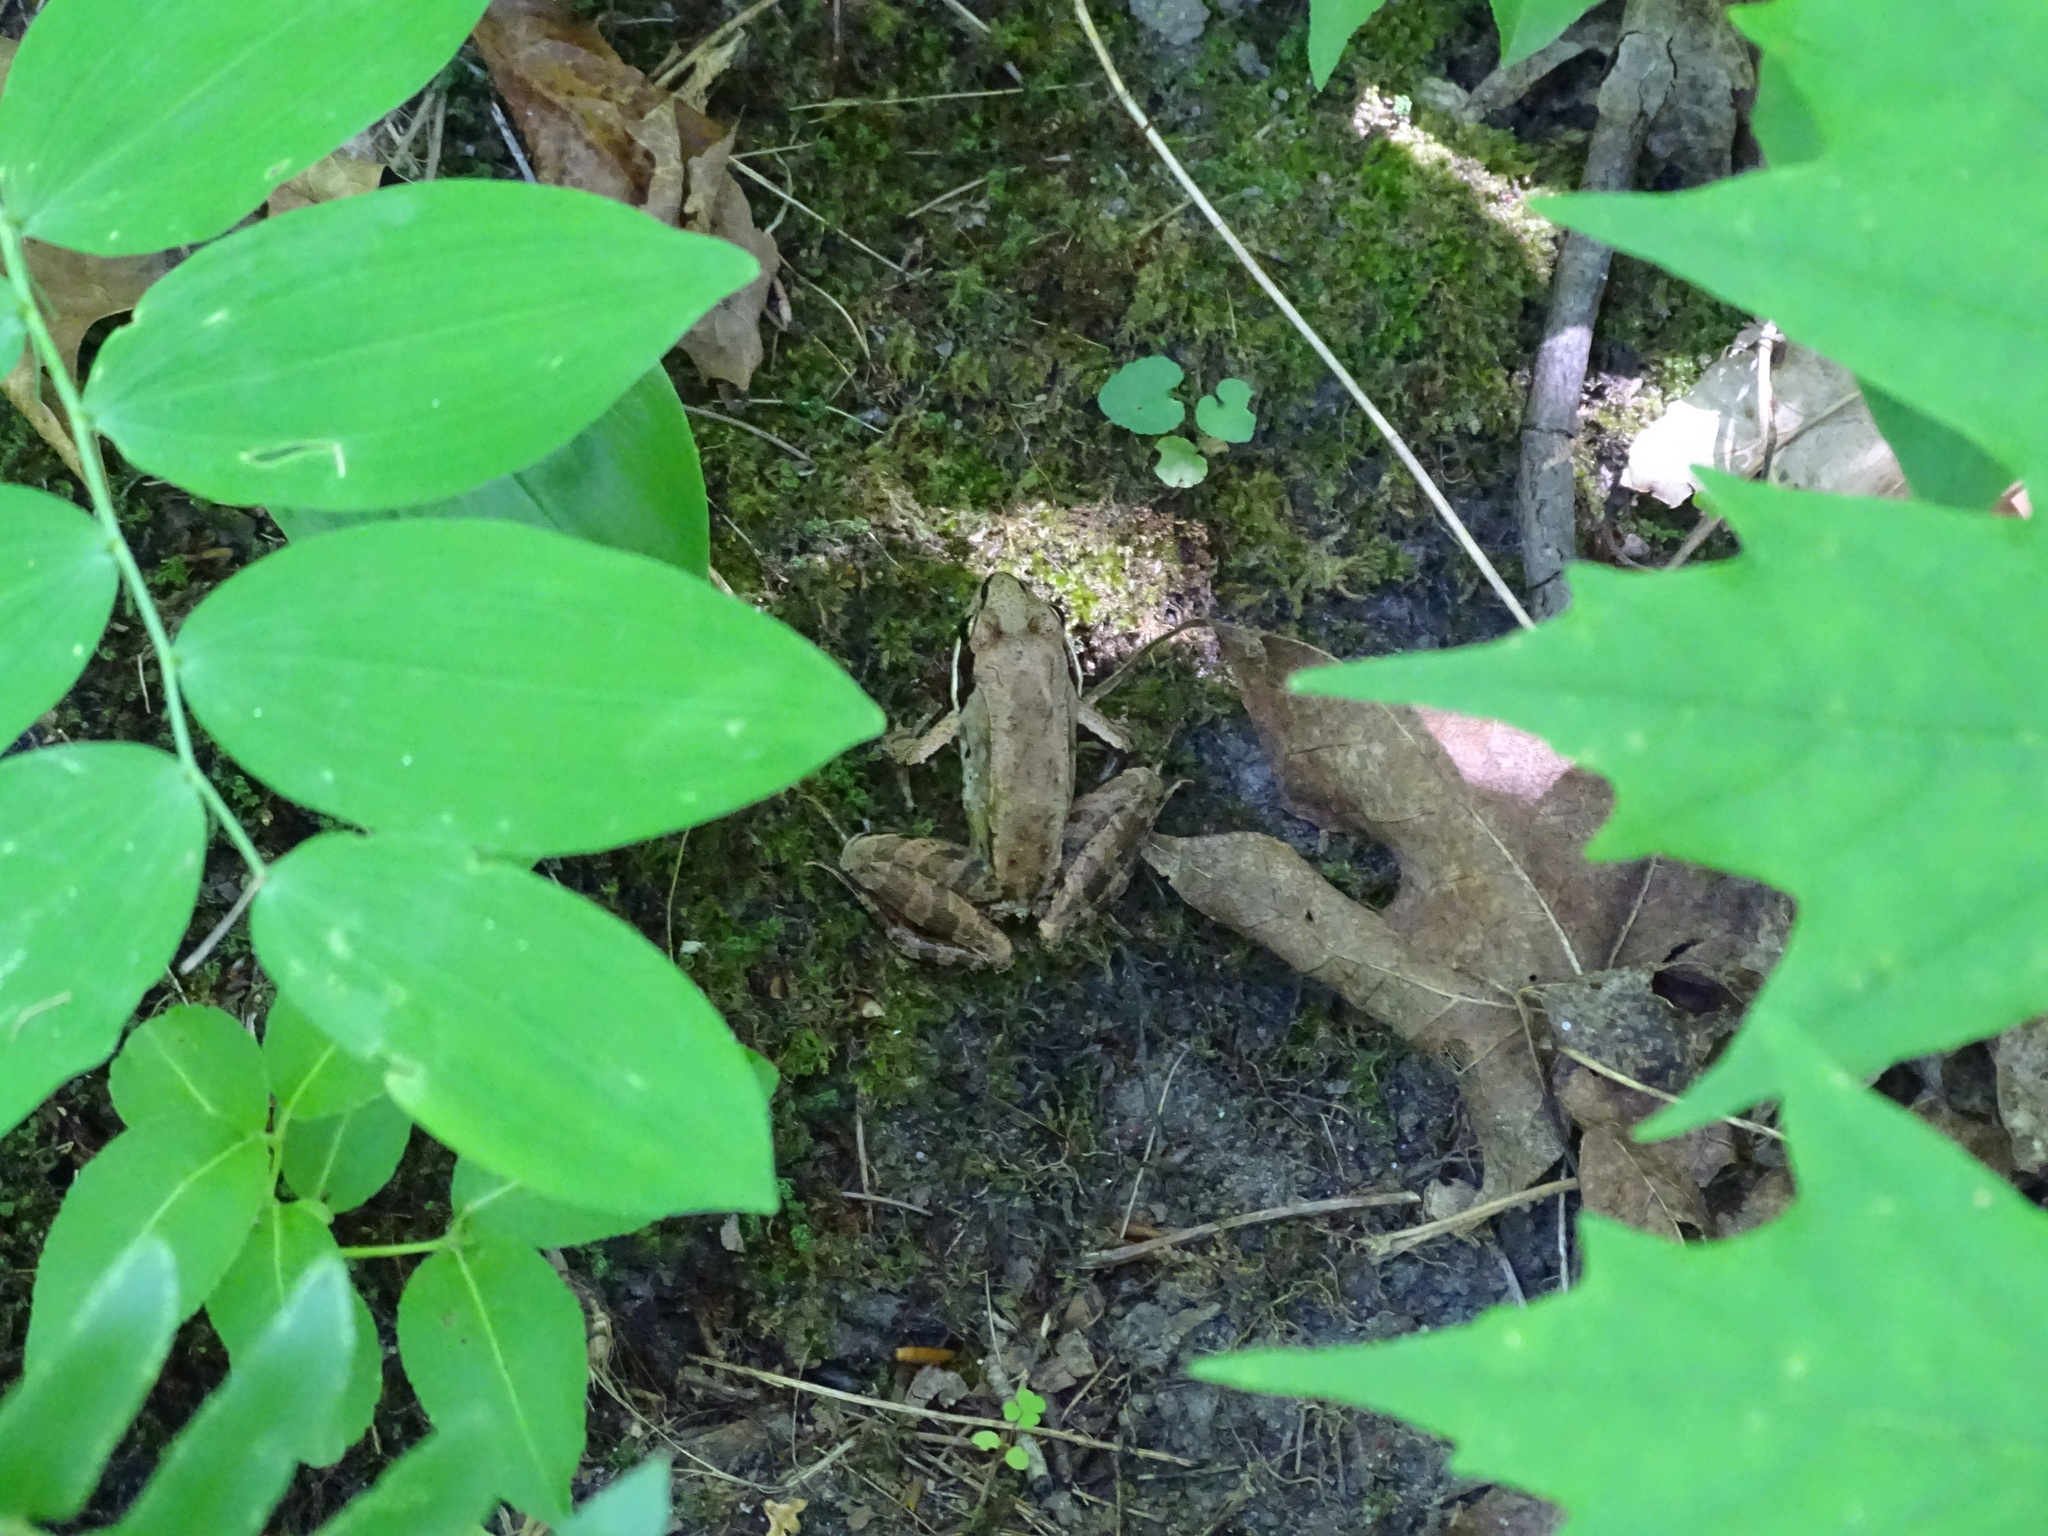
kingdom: Animalia
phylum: Chordata
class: Amphibia
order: Anura
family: Ranidae
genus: Lithobates
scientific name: Lithobates sylvaticus
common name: Wood frog
